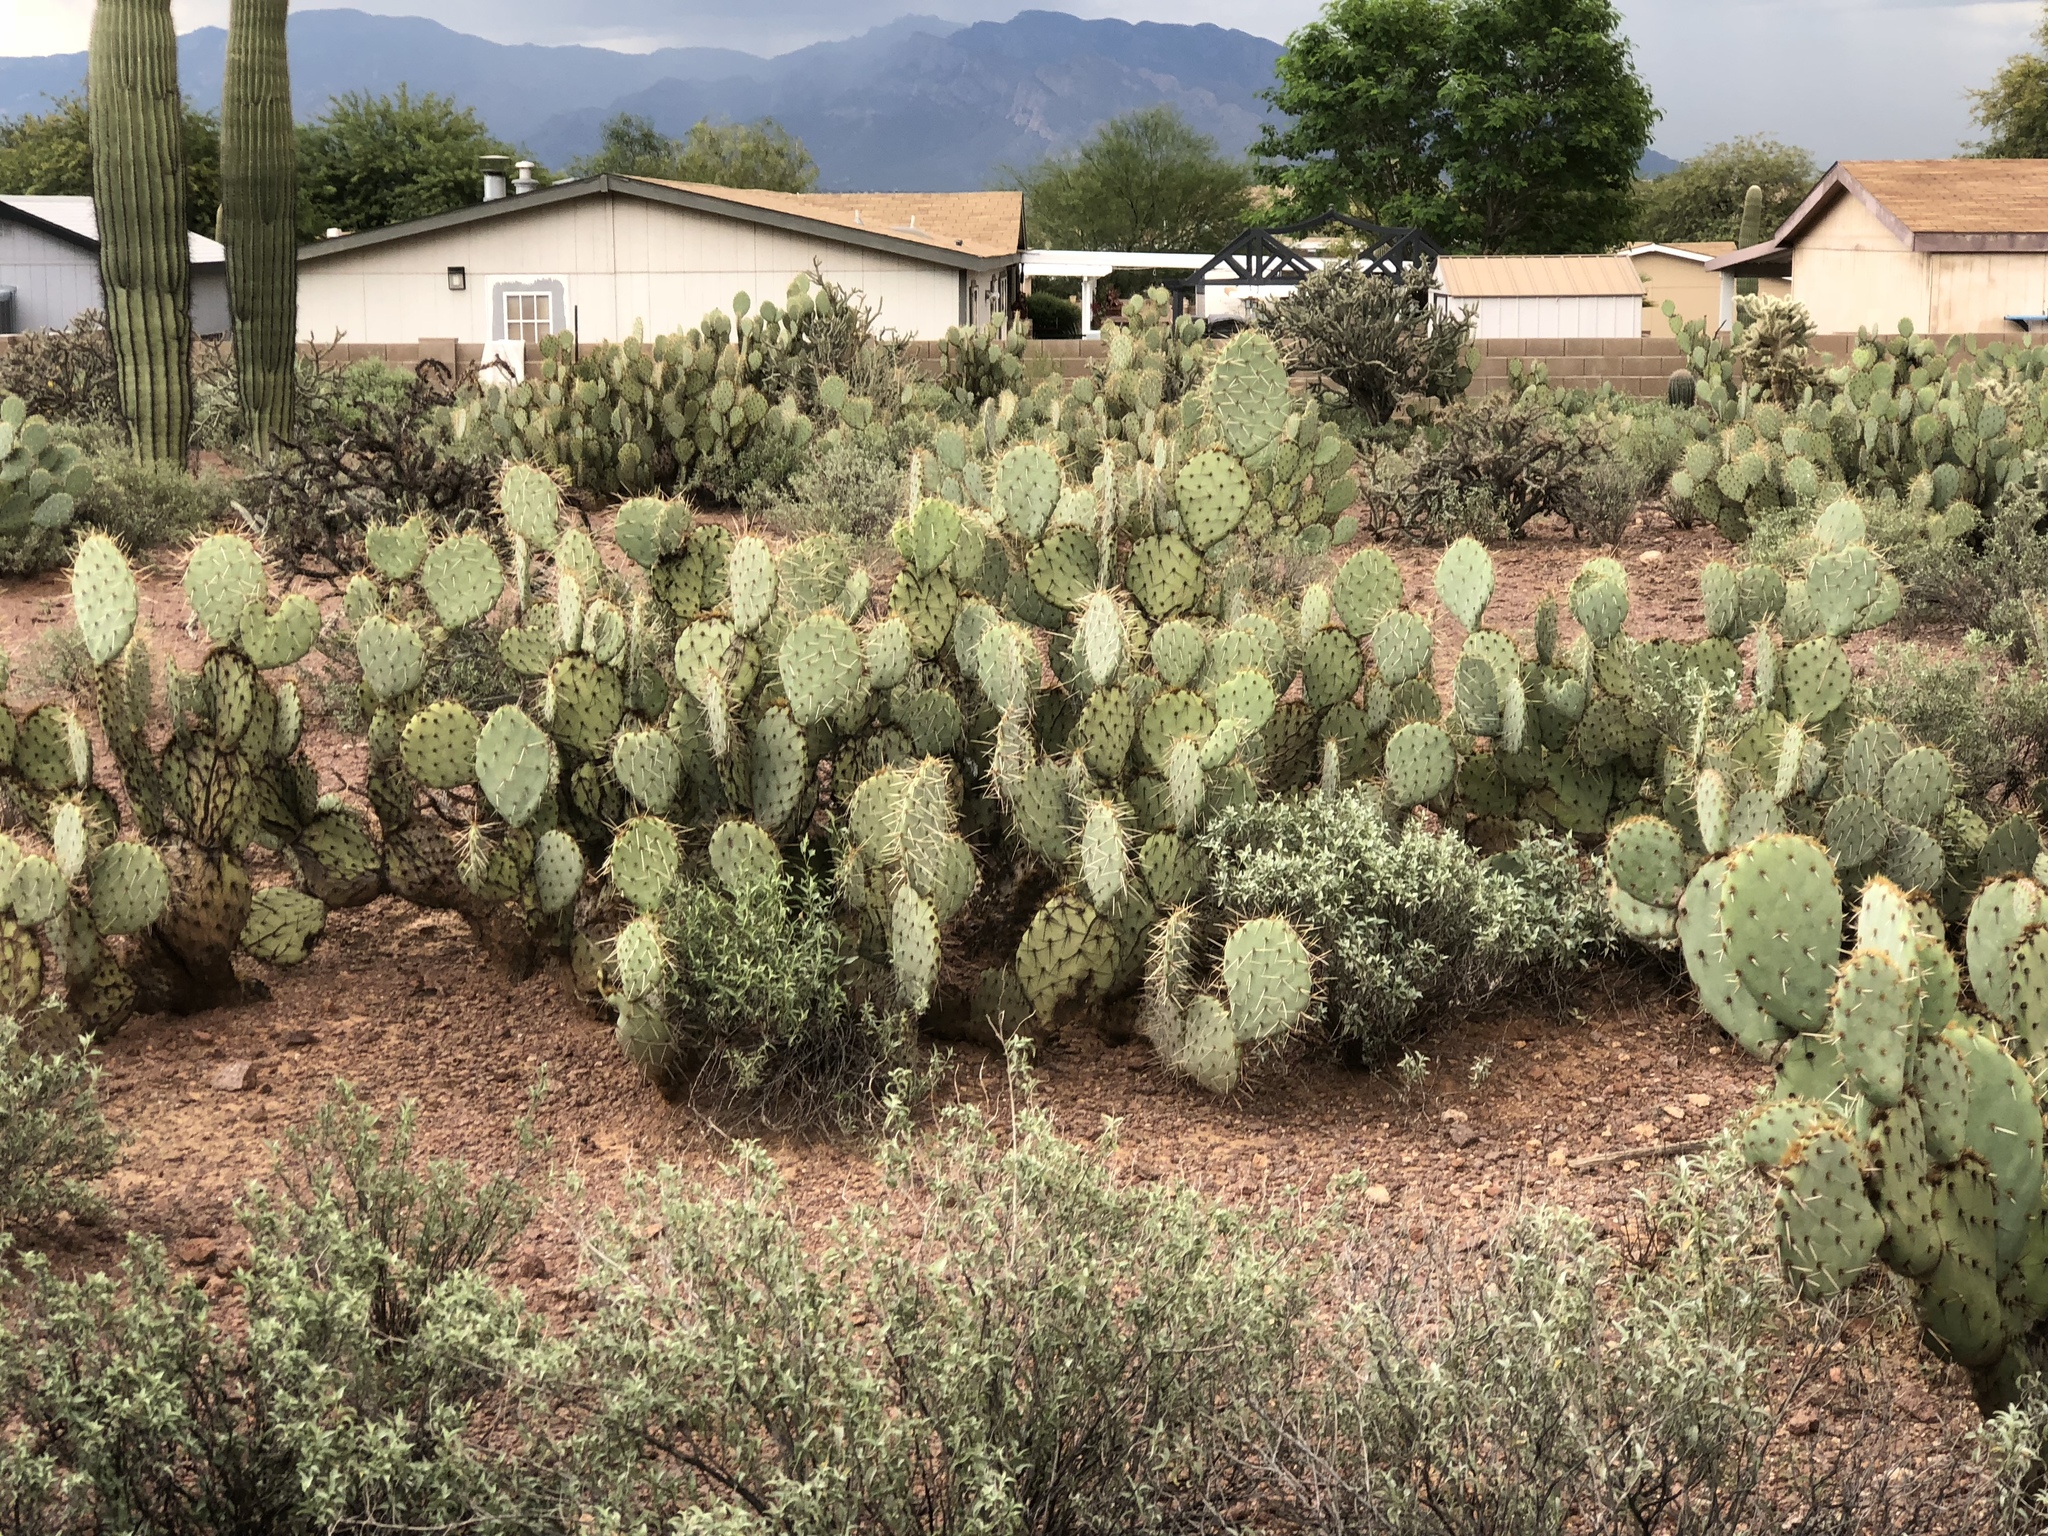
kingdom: Plantae
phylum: Tracheophyta
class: Magnoliopsida
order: Caryophyllales
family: Cactaceae
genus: Opuntia
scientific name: Opuntia engelmannii
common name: Cactus-apple
